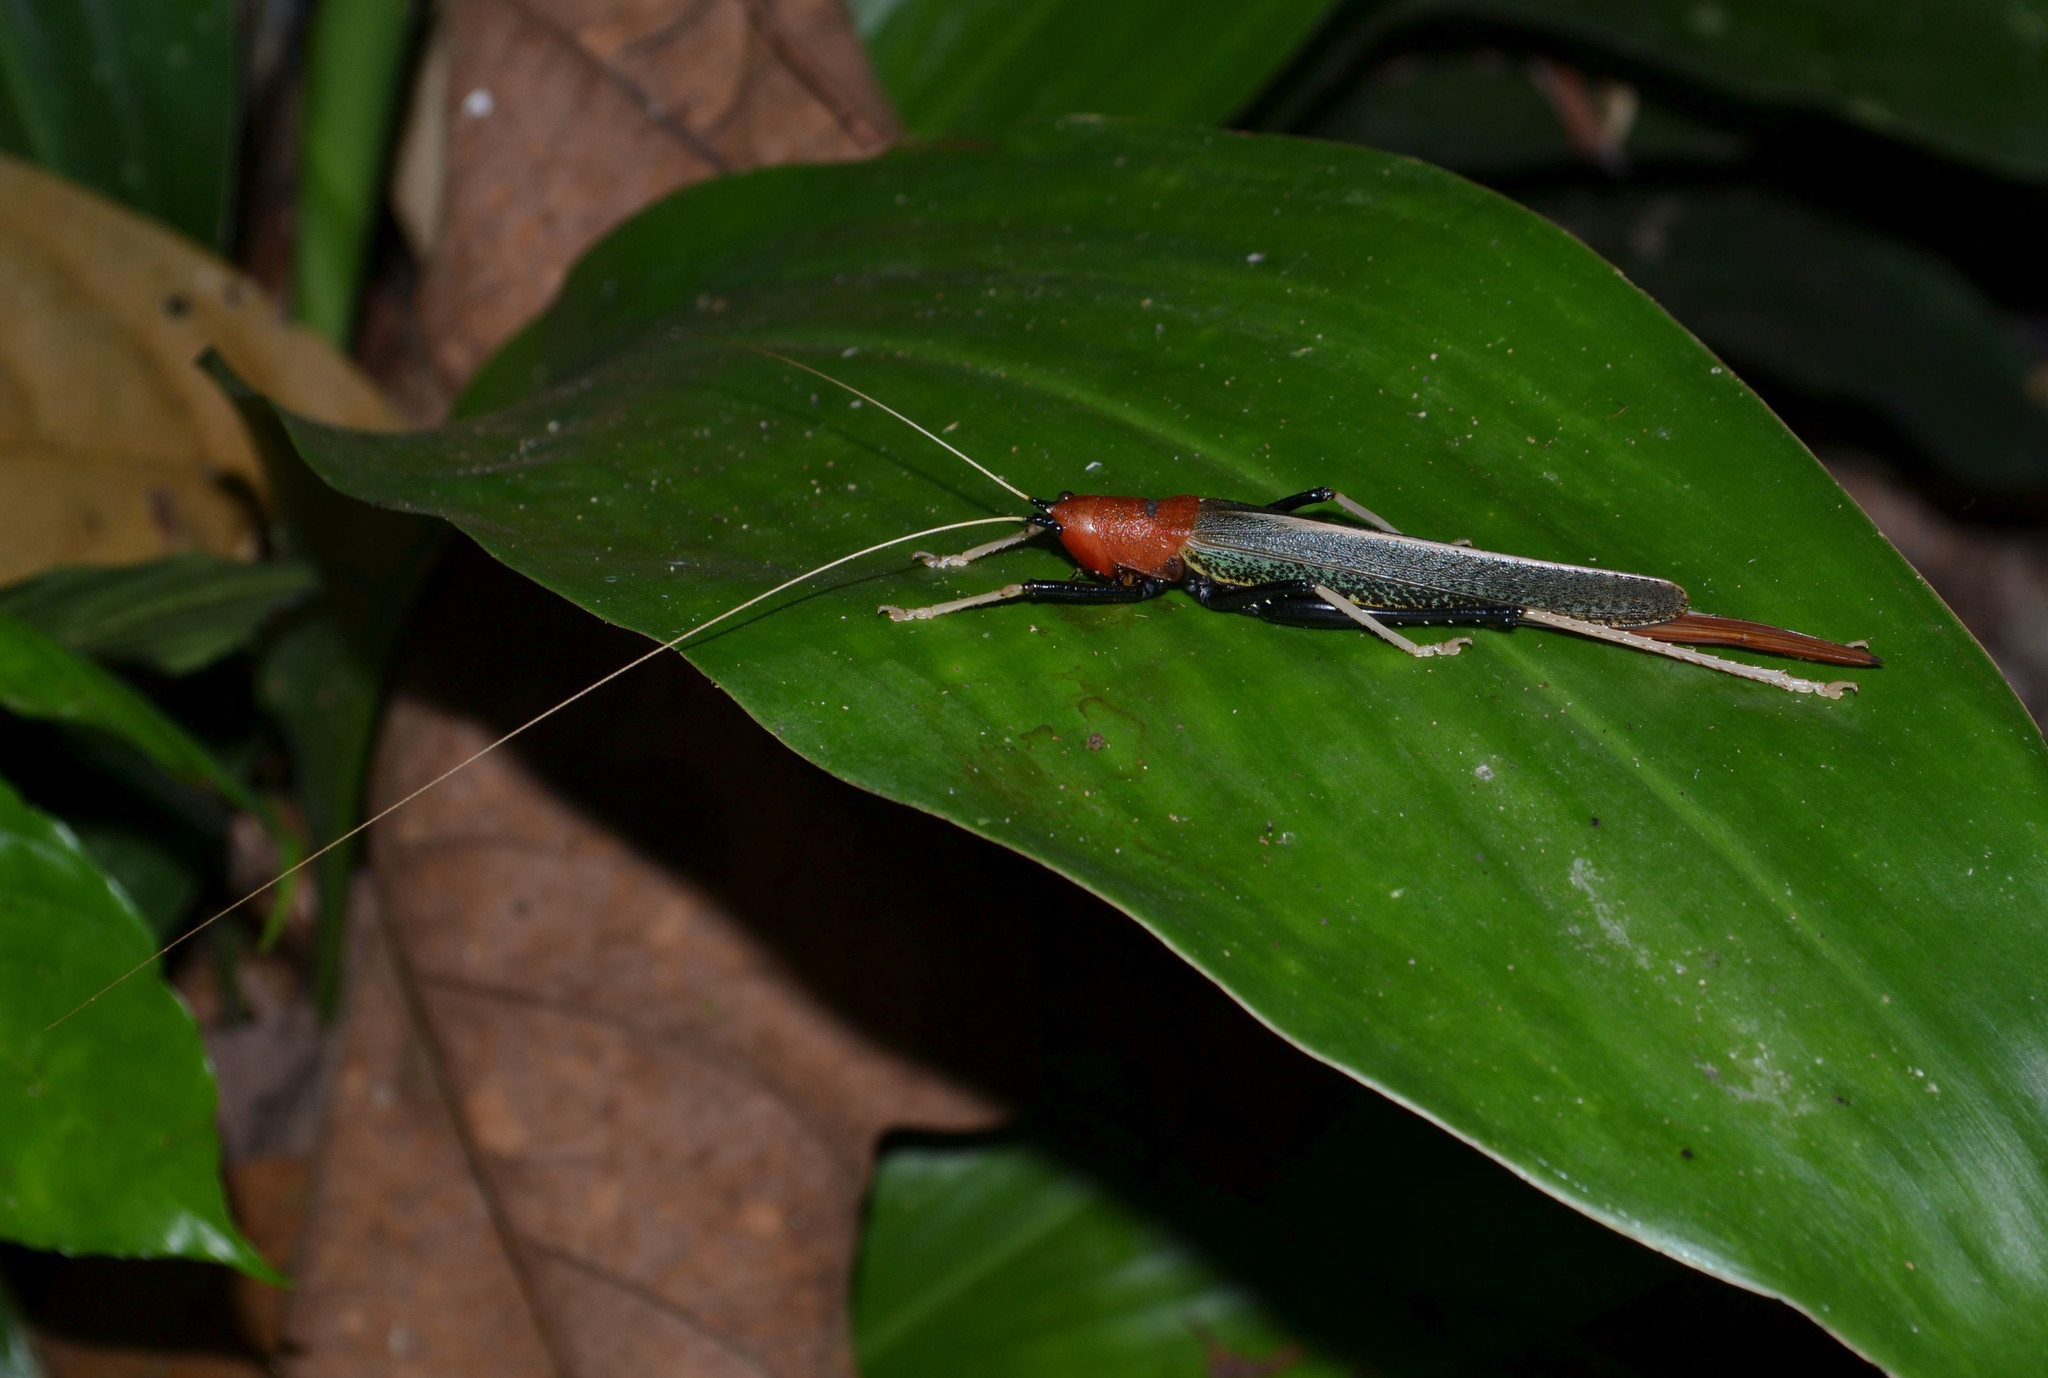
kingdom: Animalia
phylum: Arthropoda
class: Insecta
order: Orthoptera
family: Tettigoniidae
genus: Macroxiphus
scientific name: Macroxiphus sumatranus
